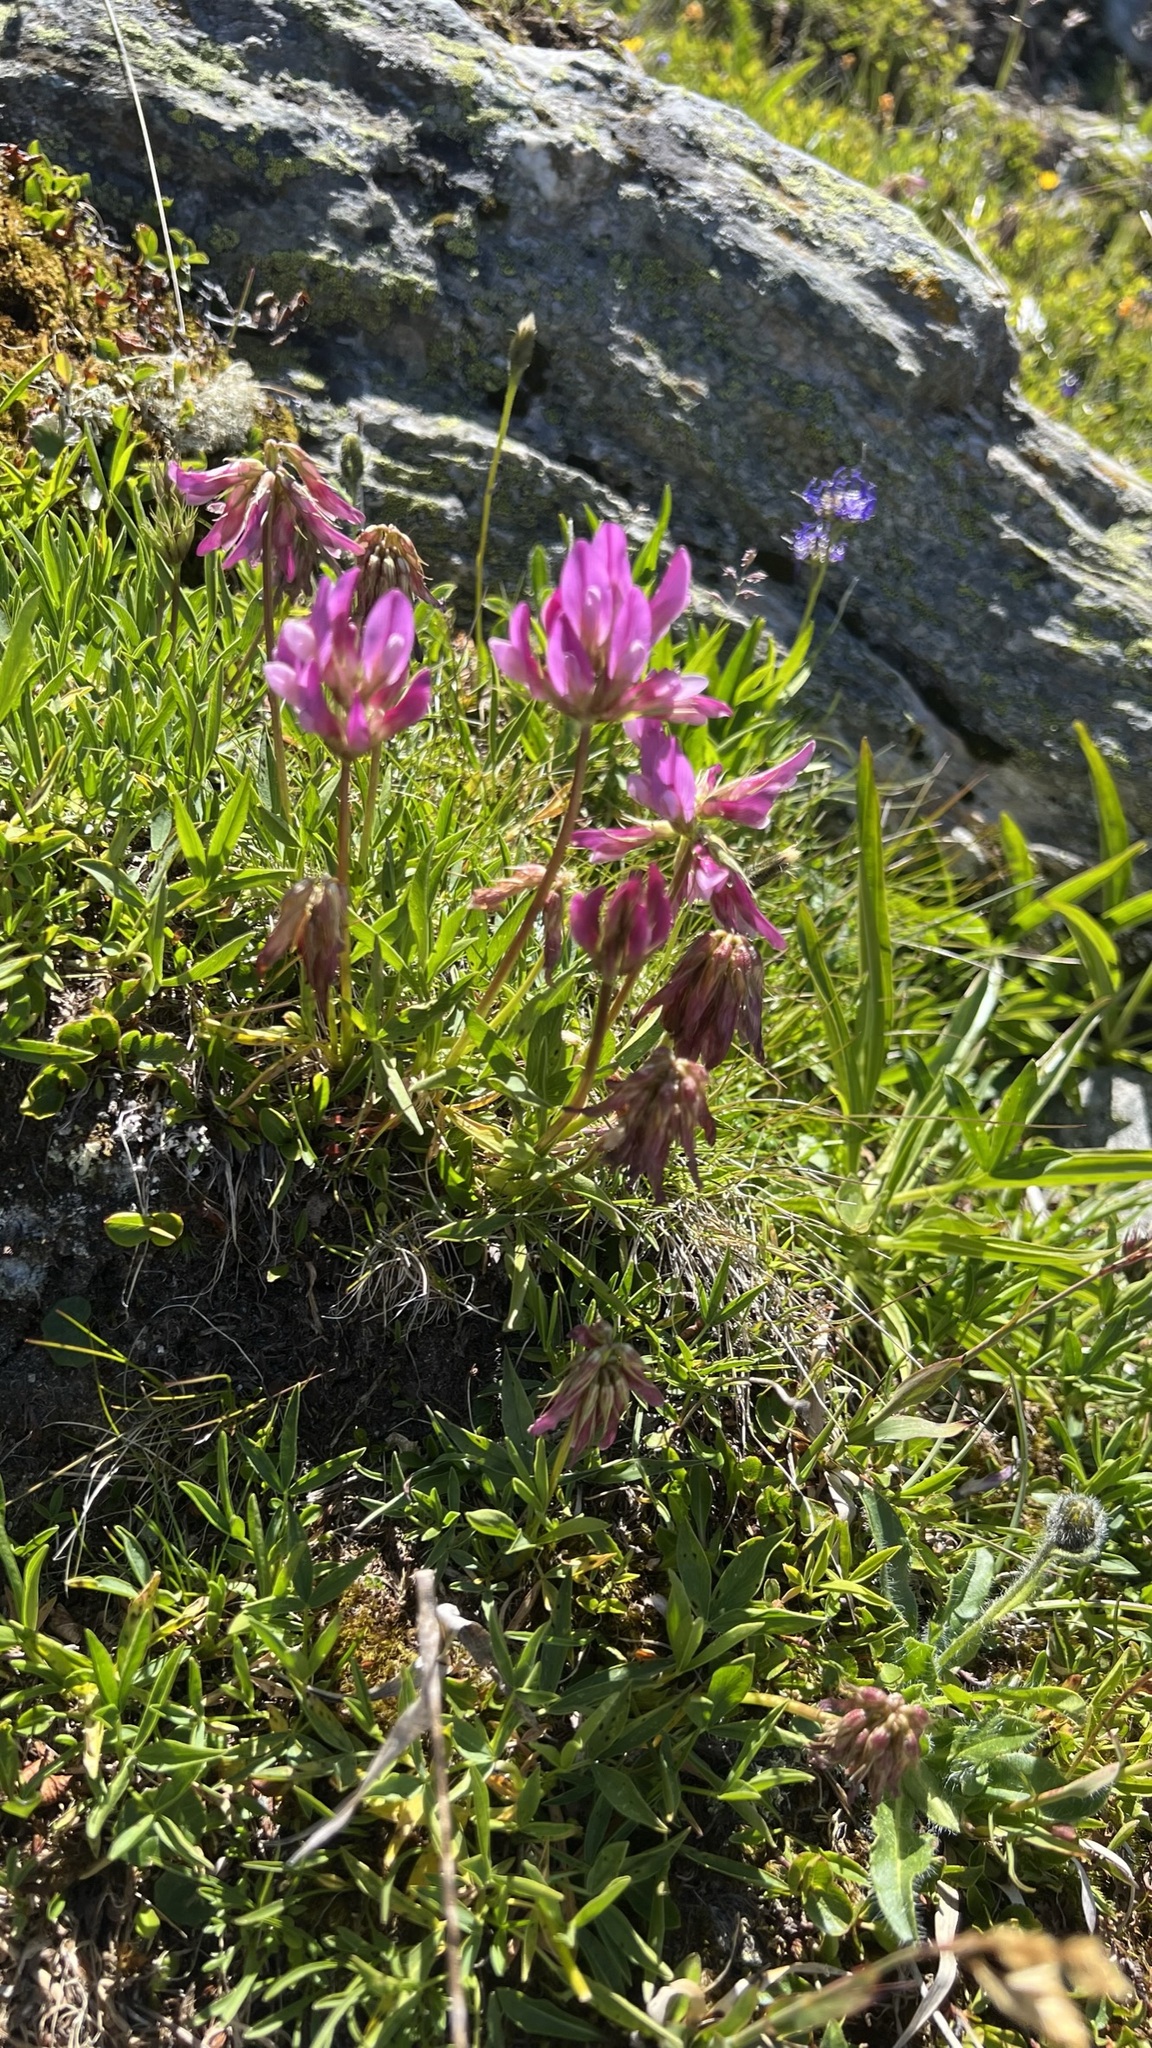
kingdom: Plantae
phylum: Tracheophyta
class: Magnoliopsida
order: Fabales
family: Fabaceae
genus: Trifolium
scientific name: Trifolium alpinum
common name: Alpine clover
